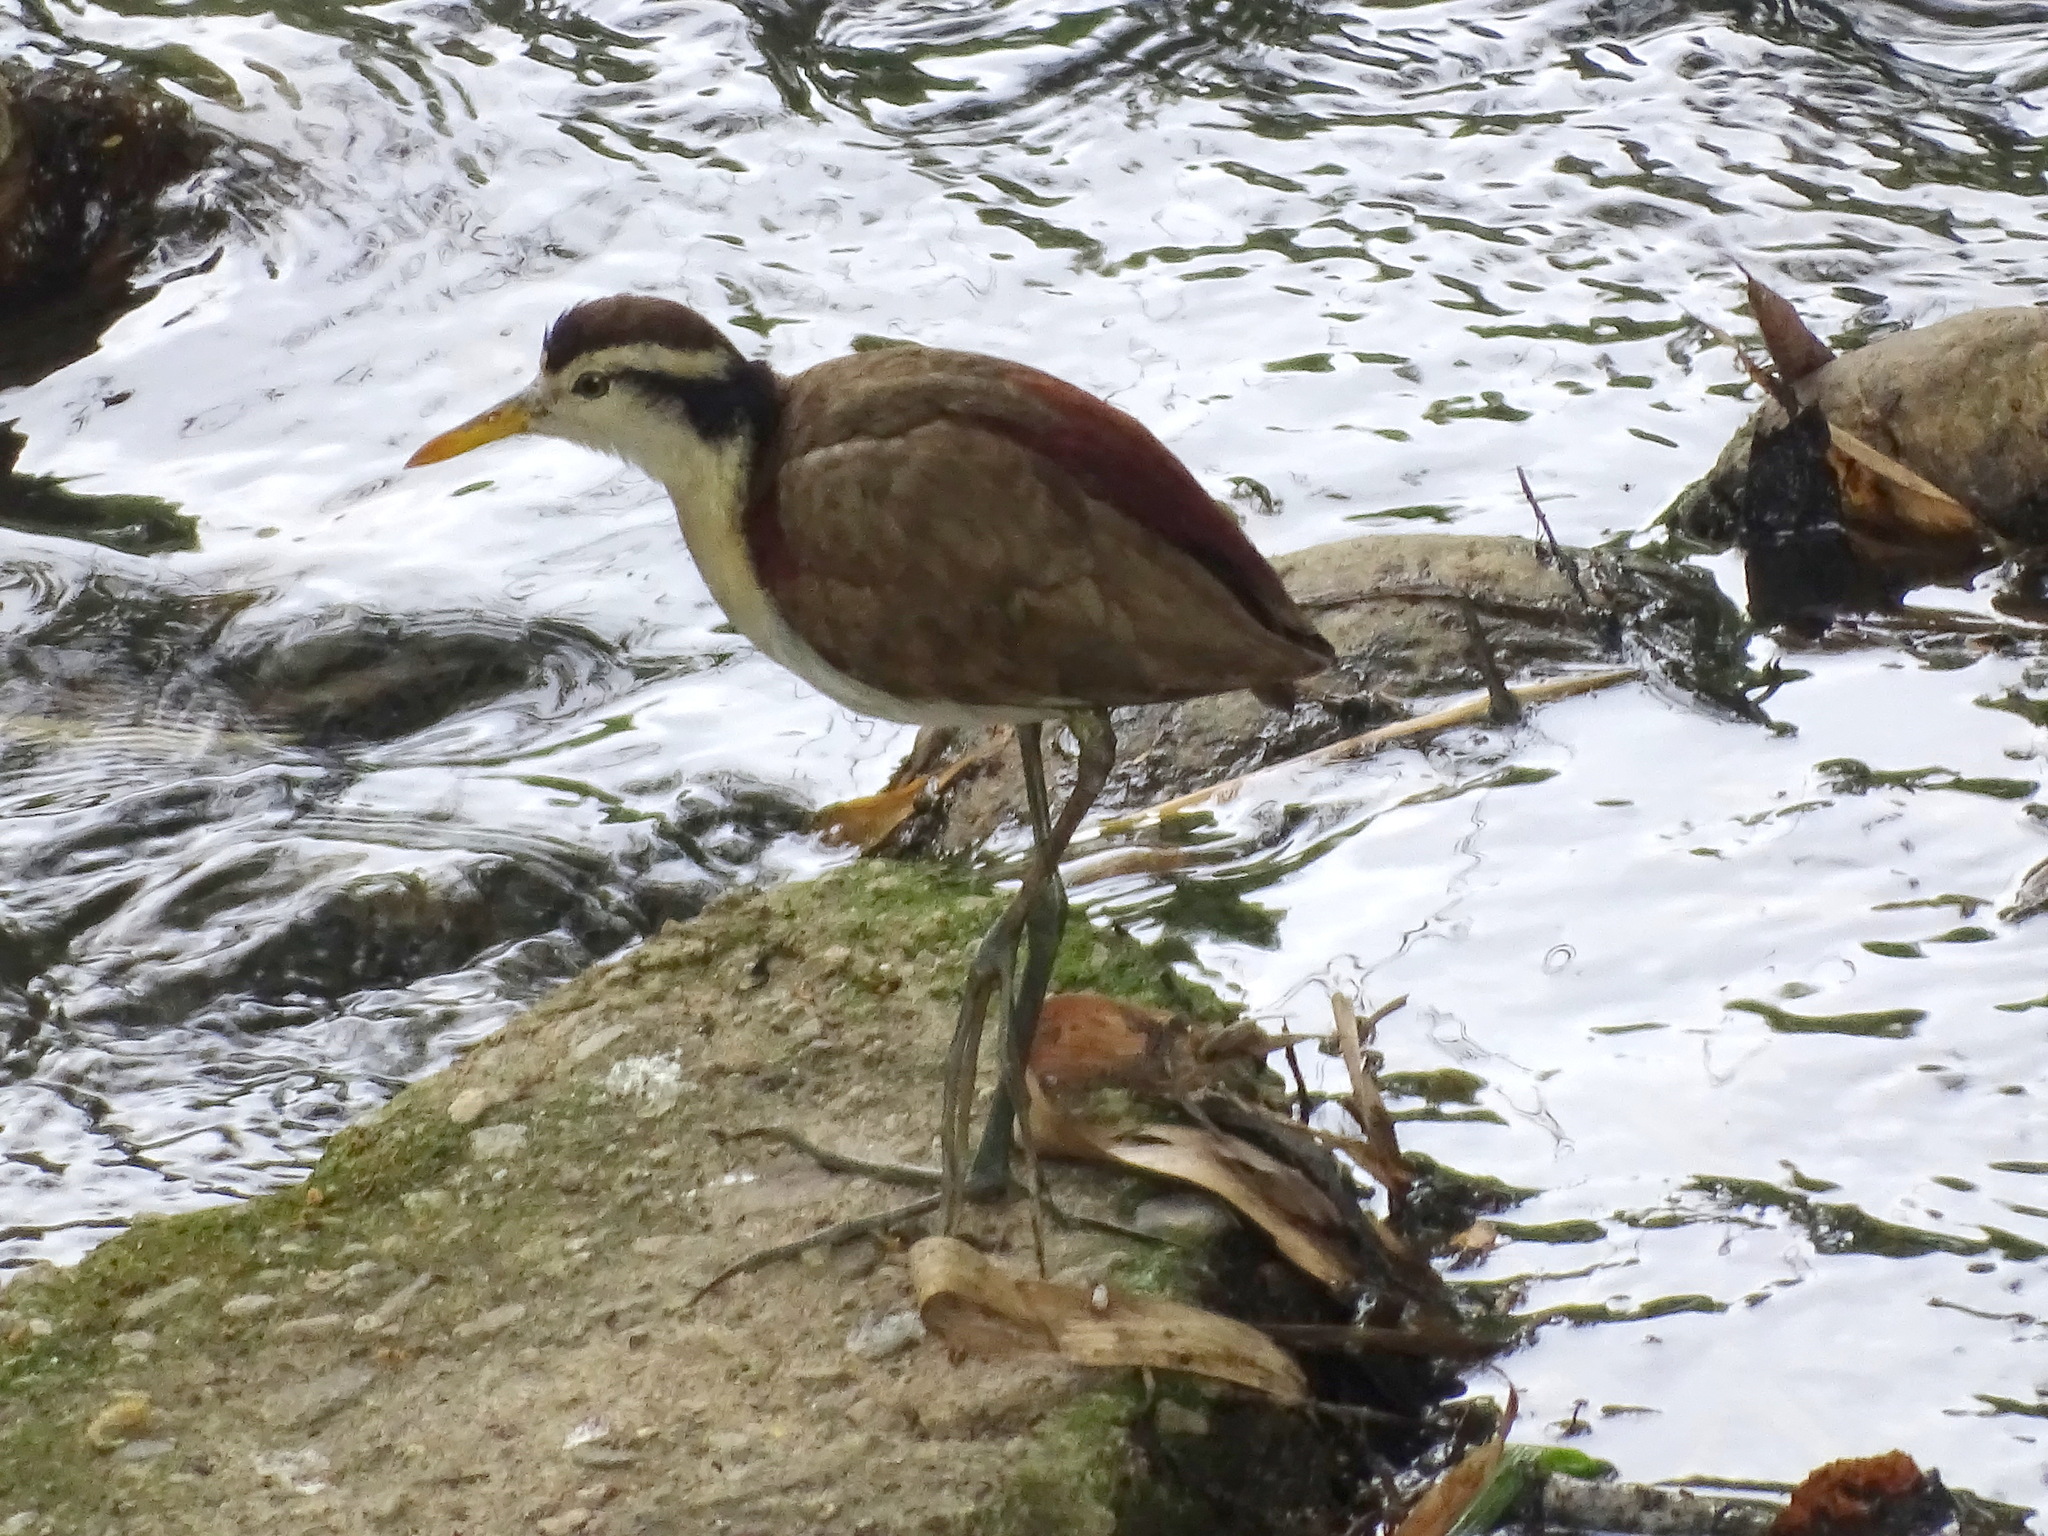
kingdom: Animalia
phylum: Chordata
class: Aves
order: Charadriiformes
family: Jacanidae
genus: Jacana
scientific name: Jacana spinosa
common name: Northern jacana
